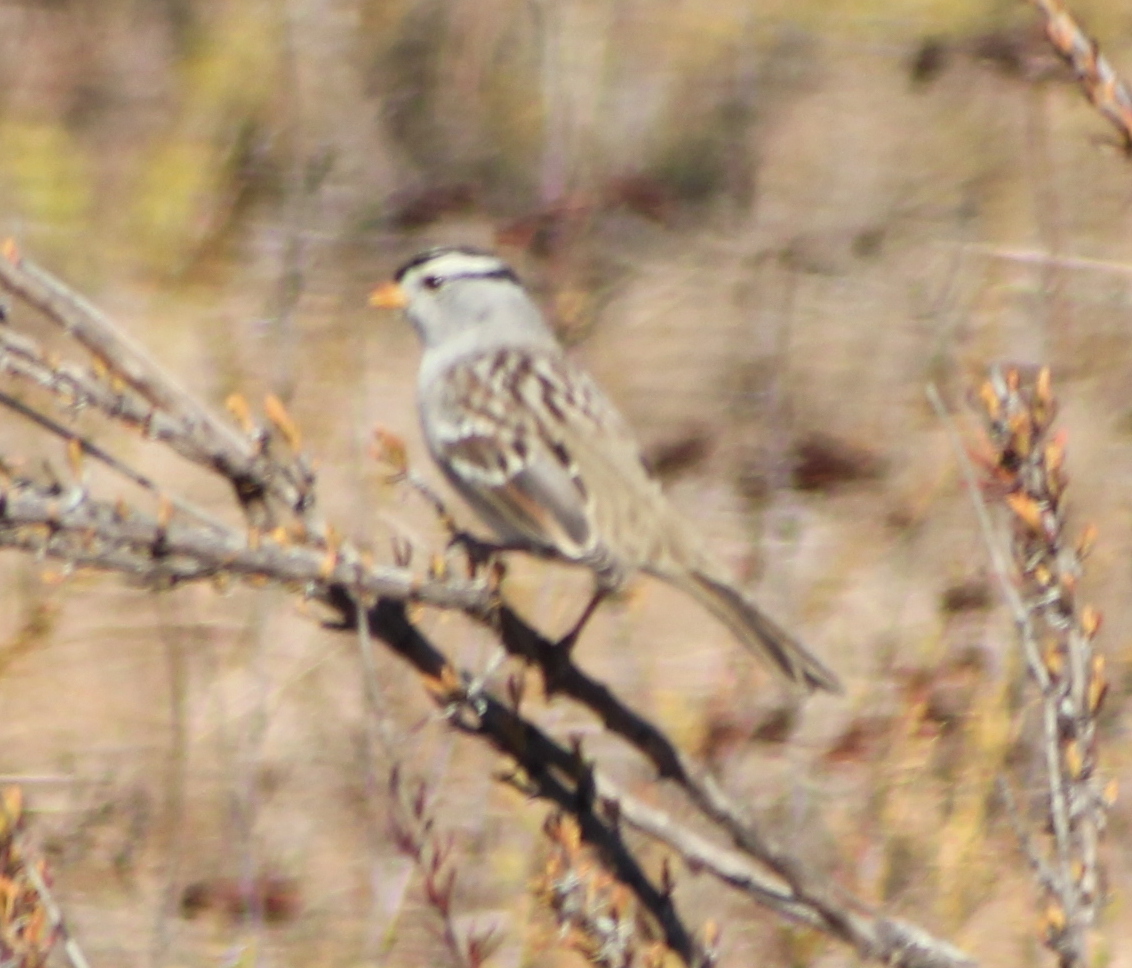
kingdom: Animalia
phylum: Chordata
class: Aves
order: Passeriformes
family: Passerellidae
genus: Zonotrichia
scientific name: Zonotrichia leucophrys
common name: White-crowned sparrow
